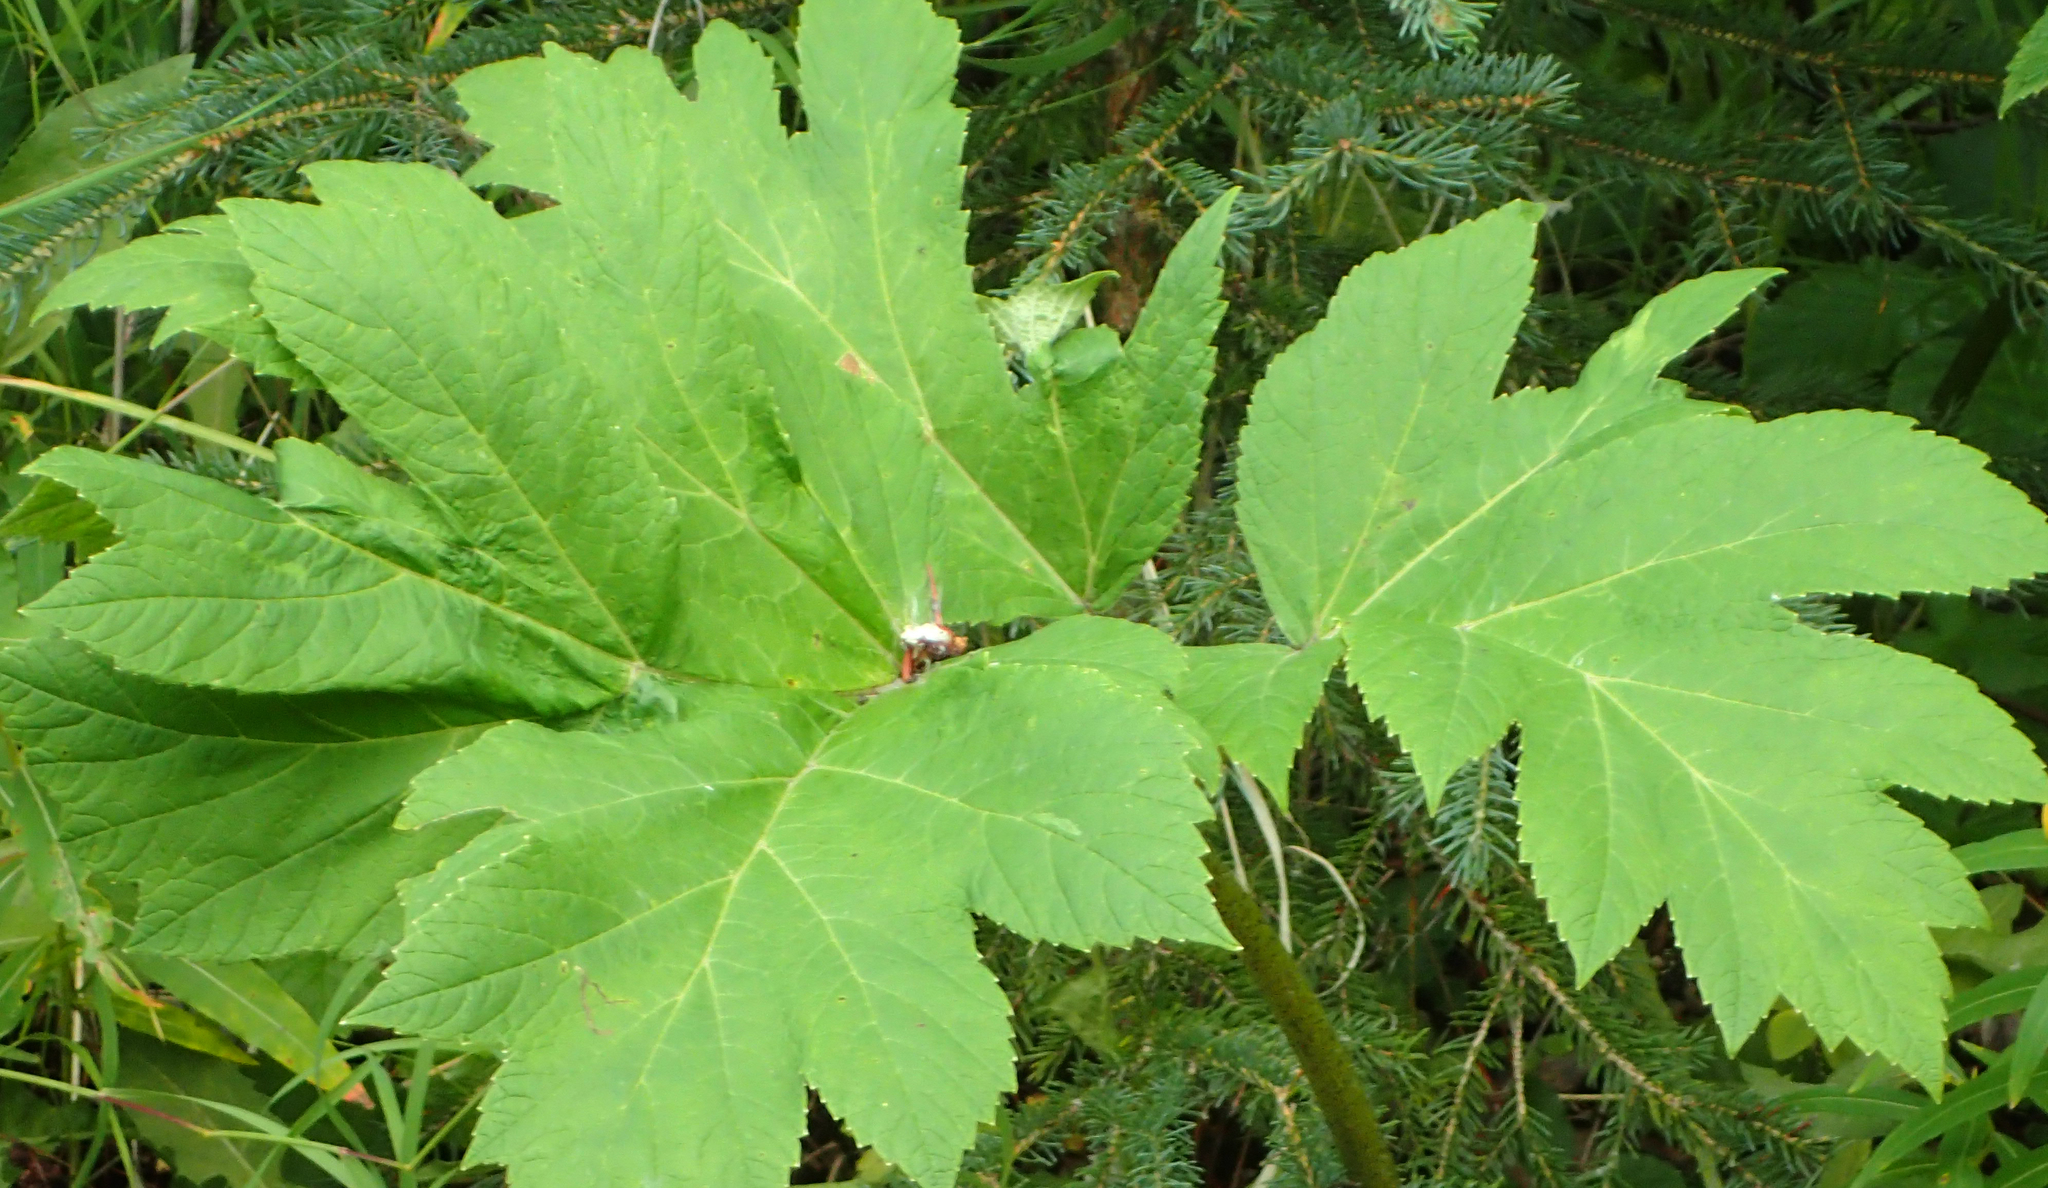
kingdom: Plantae
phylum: Tracheophyta
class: Magnoliopsida
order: Apiales
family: Apiaceae
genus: Heracleum
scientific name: Heracleum maximum
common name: American cow parsnip
